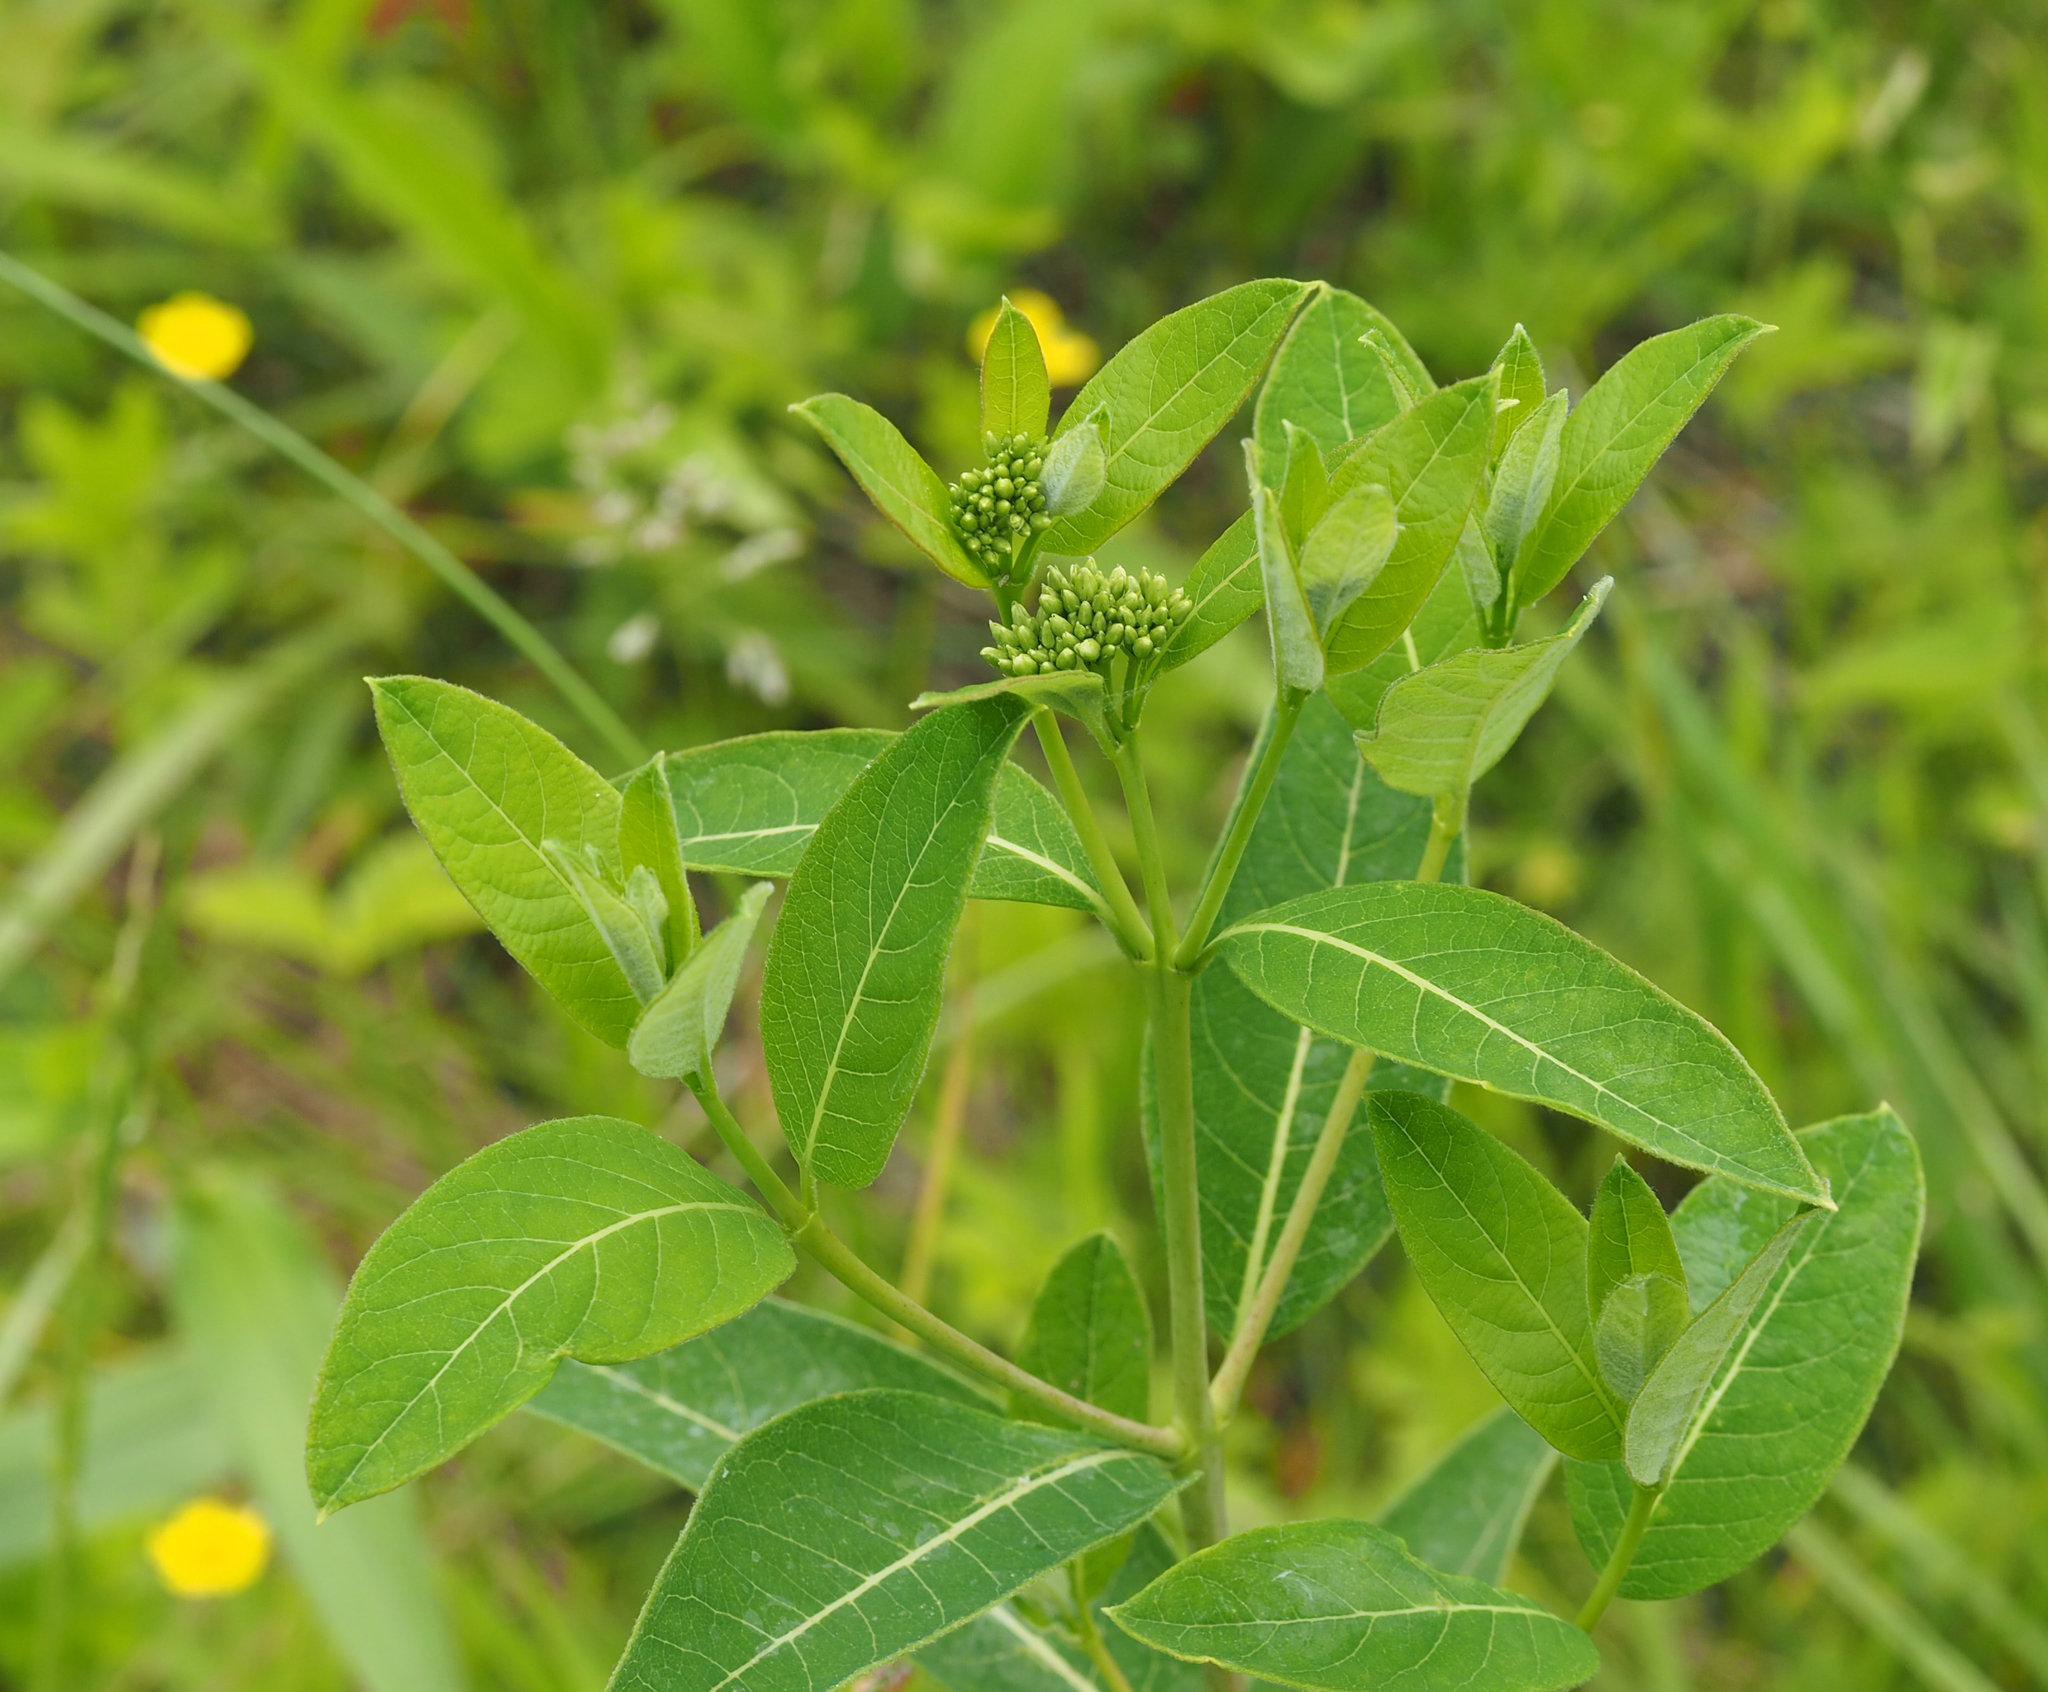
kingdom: Plantae
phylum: Tracheophyta
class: Magnoliopsida
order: Gentianales
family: Apocynaceae
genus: Apocynum
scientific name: Apocynum cannabinum
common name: Hemp dogbane
